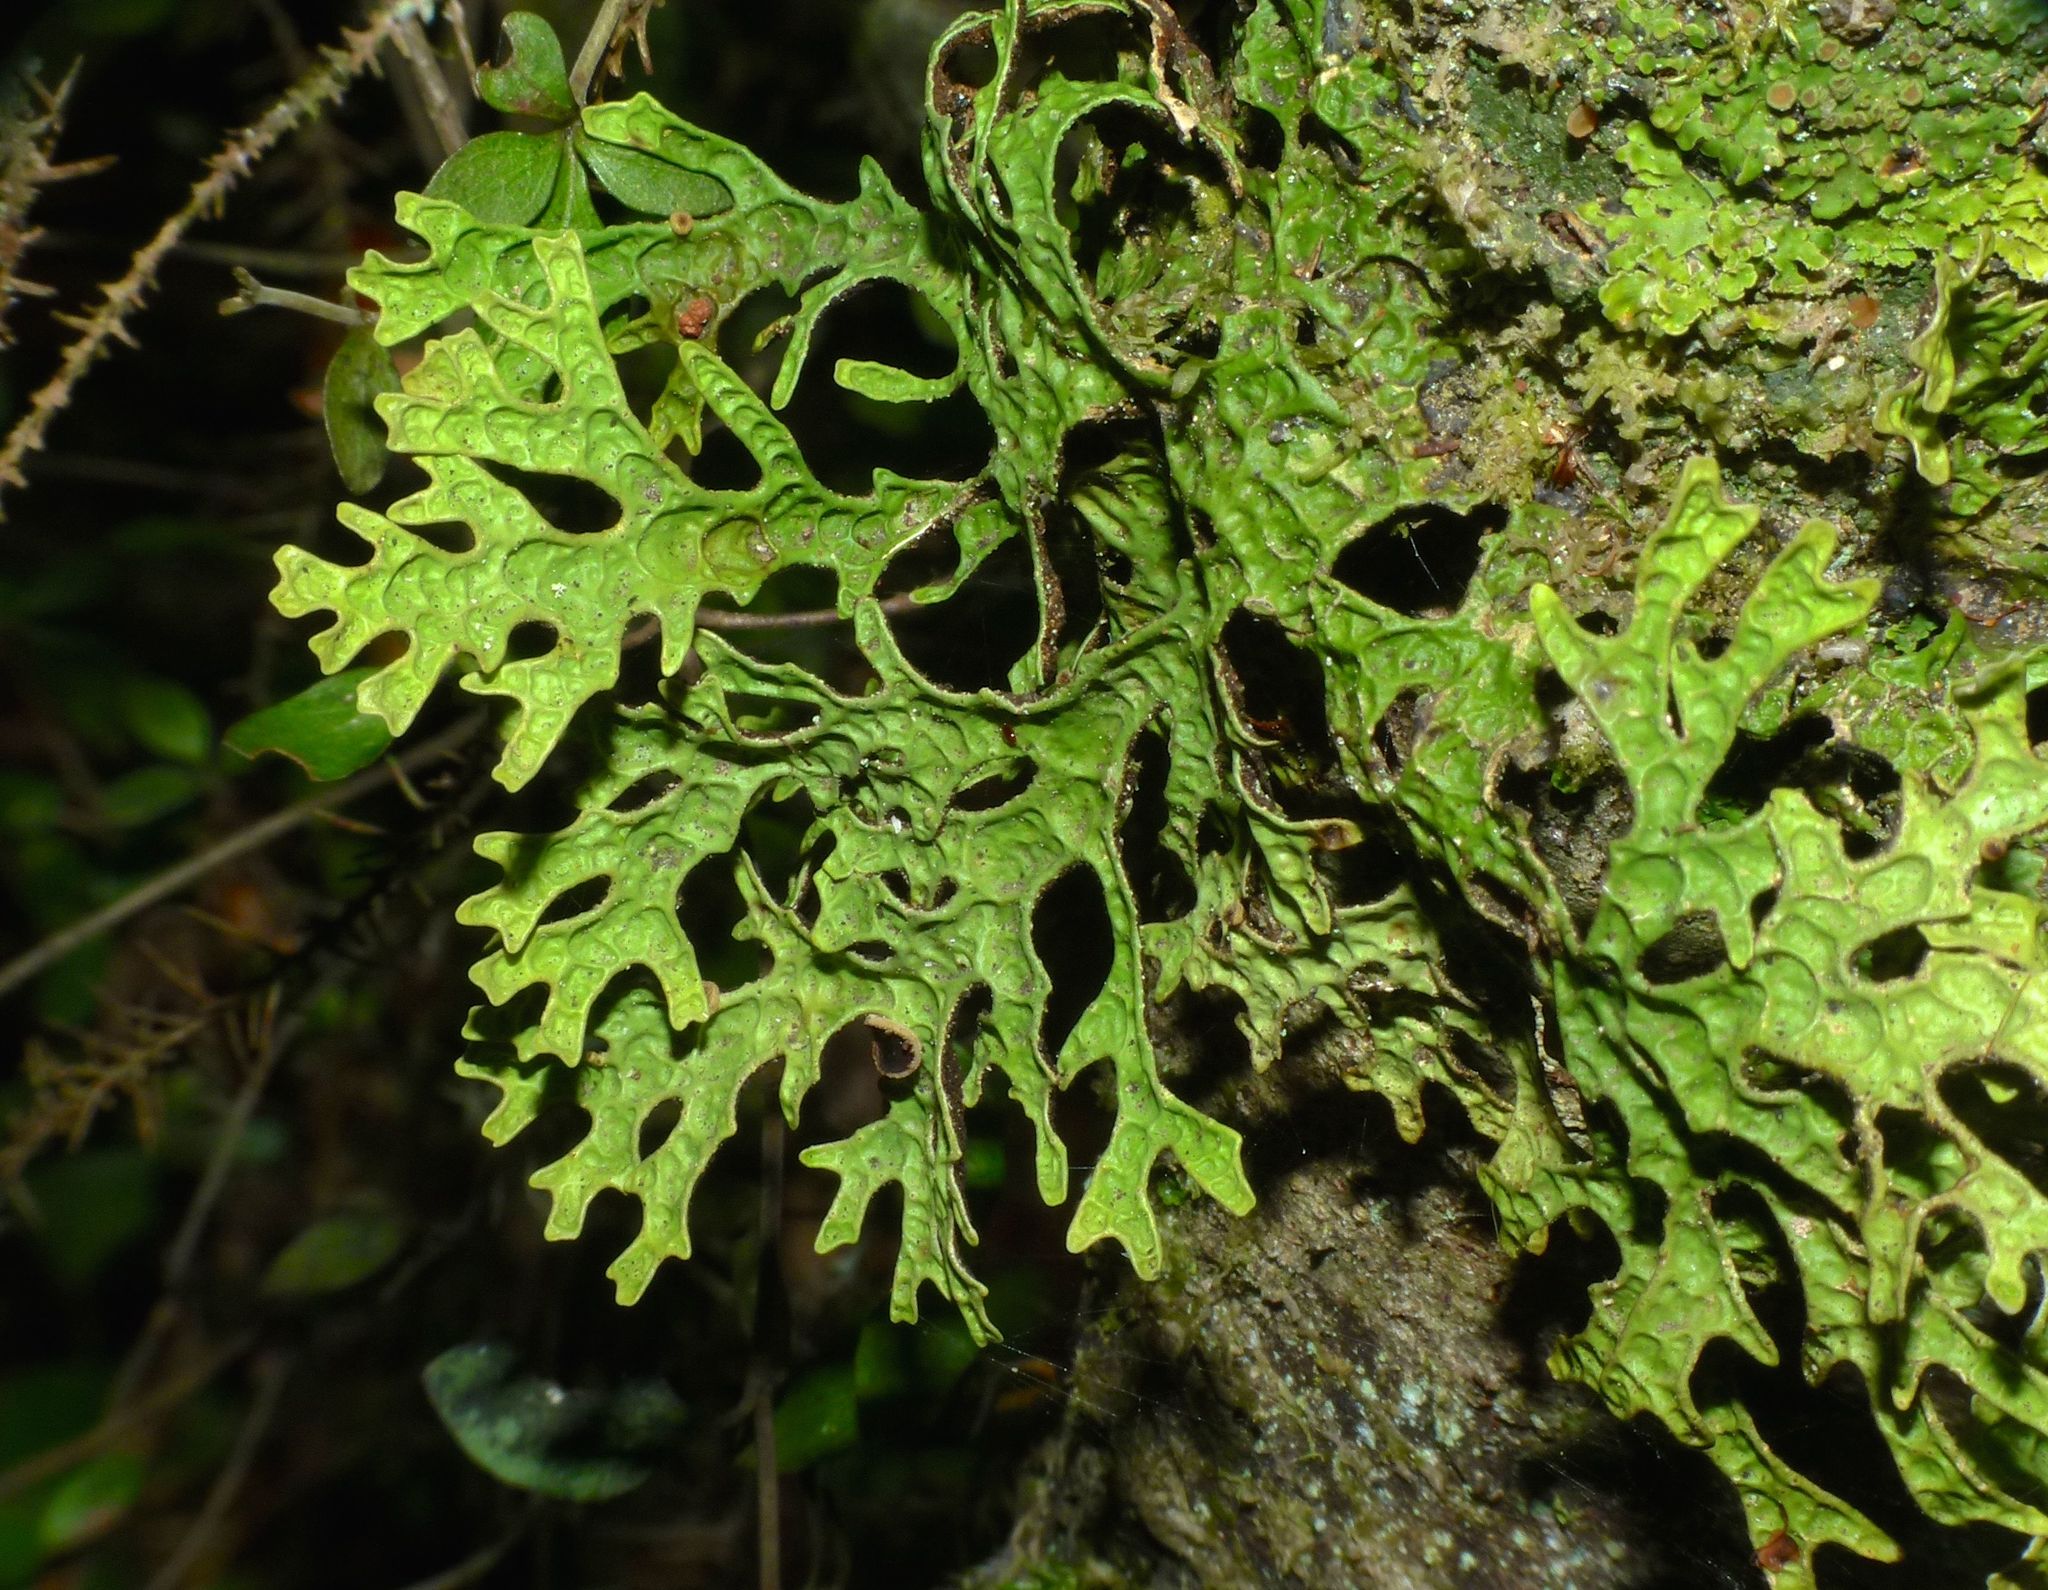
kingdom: Fungi
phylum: Ascomycota
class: Lecanoromycetes
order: Peltigerales
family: Lobariaceae
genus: Pseudocyphellaria
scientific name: Pseudocyphellaria billardierei
